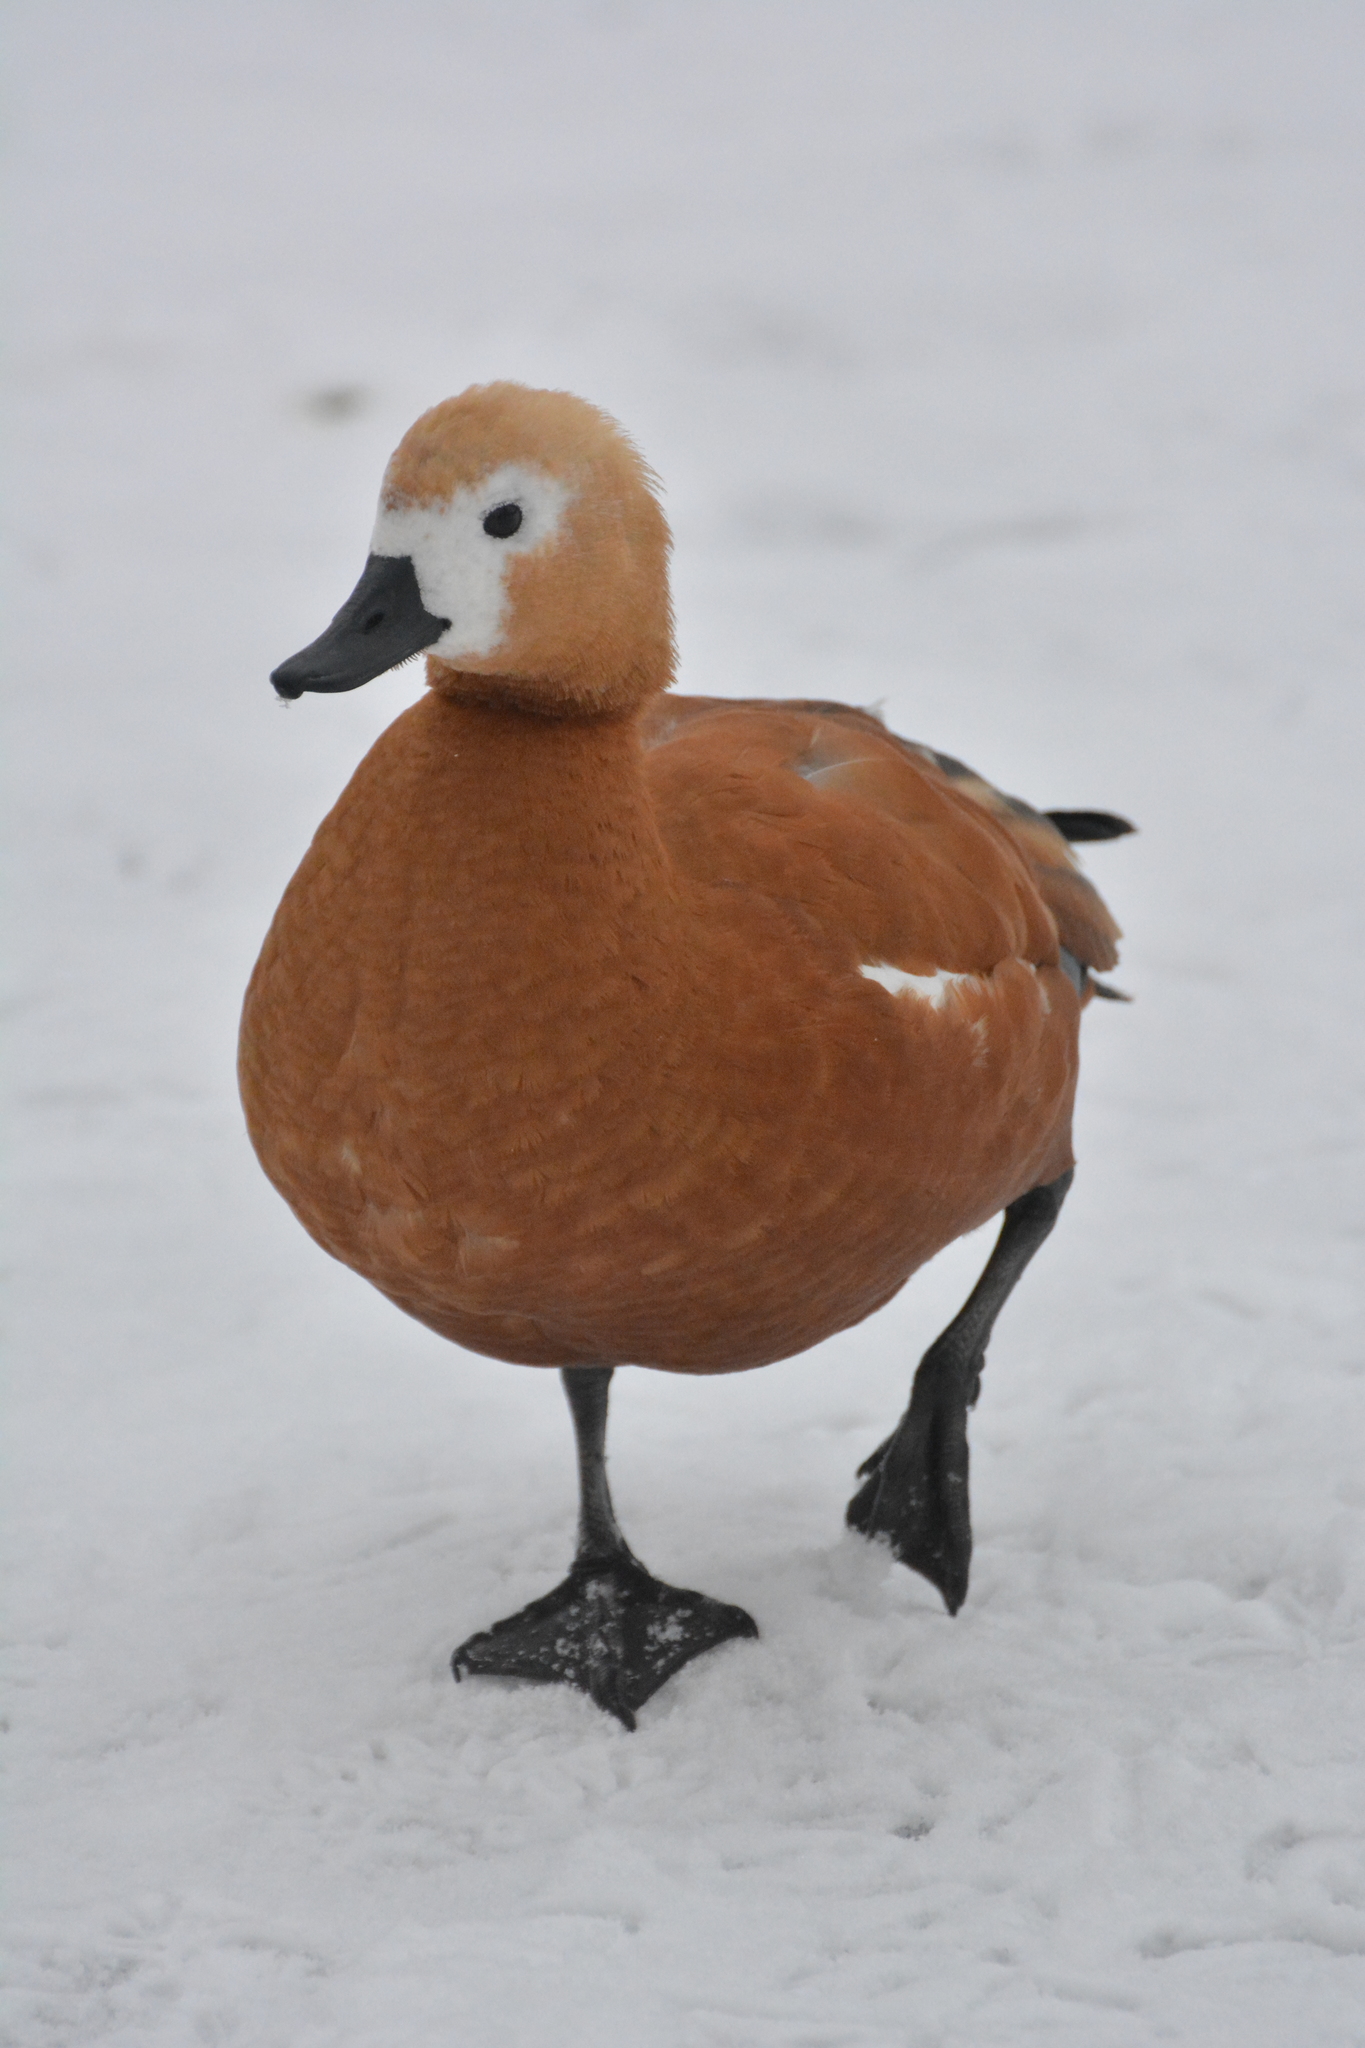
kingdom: Animalia
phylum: Chordata
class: Aves
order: Anseriformes
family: Anatidae
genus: Tadorna
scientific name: Tadorna ferruginea
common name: Ruddy shelduck
